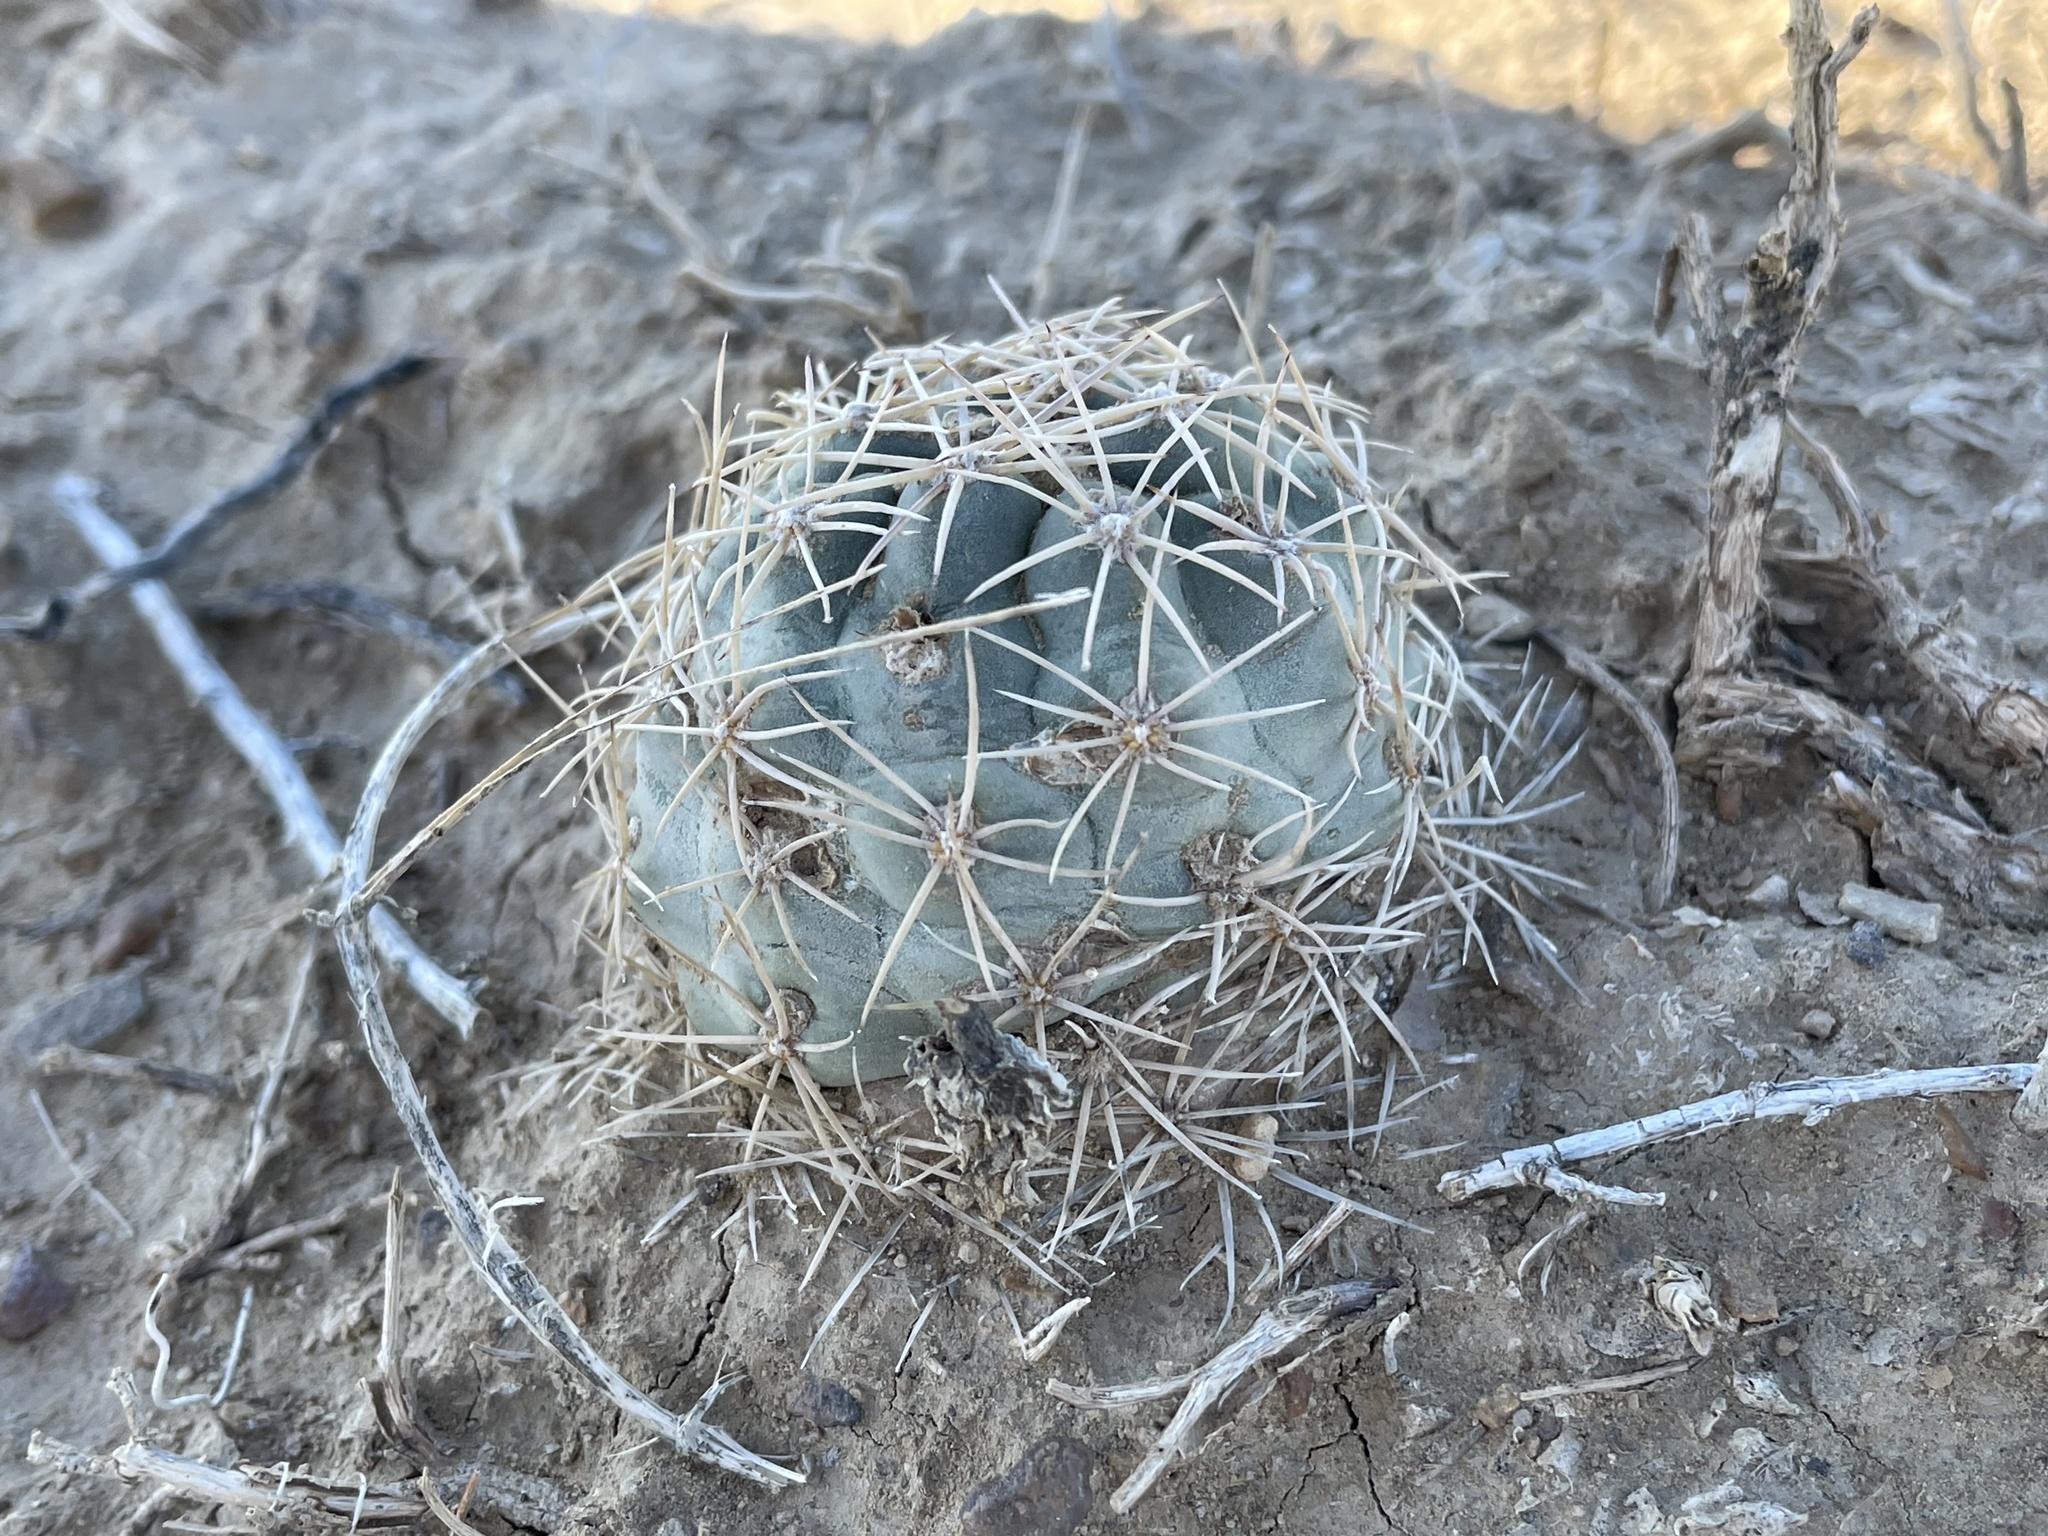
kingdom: Plantae
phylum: Tracheophyta
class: Magnoliopsida
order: Caryophyllales
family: Cactaceae
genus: Sclerocactus
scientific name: Sclerocactus mesae-verdae
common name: Mesa verde cactus
